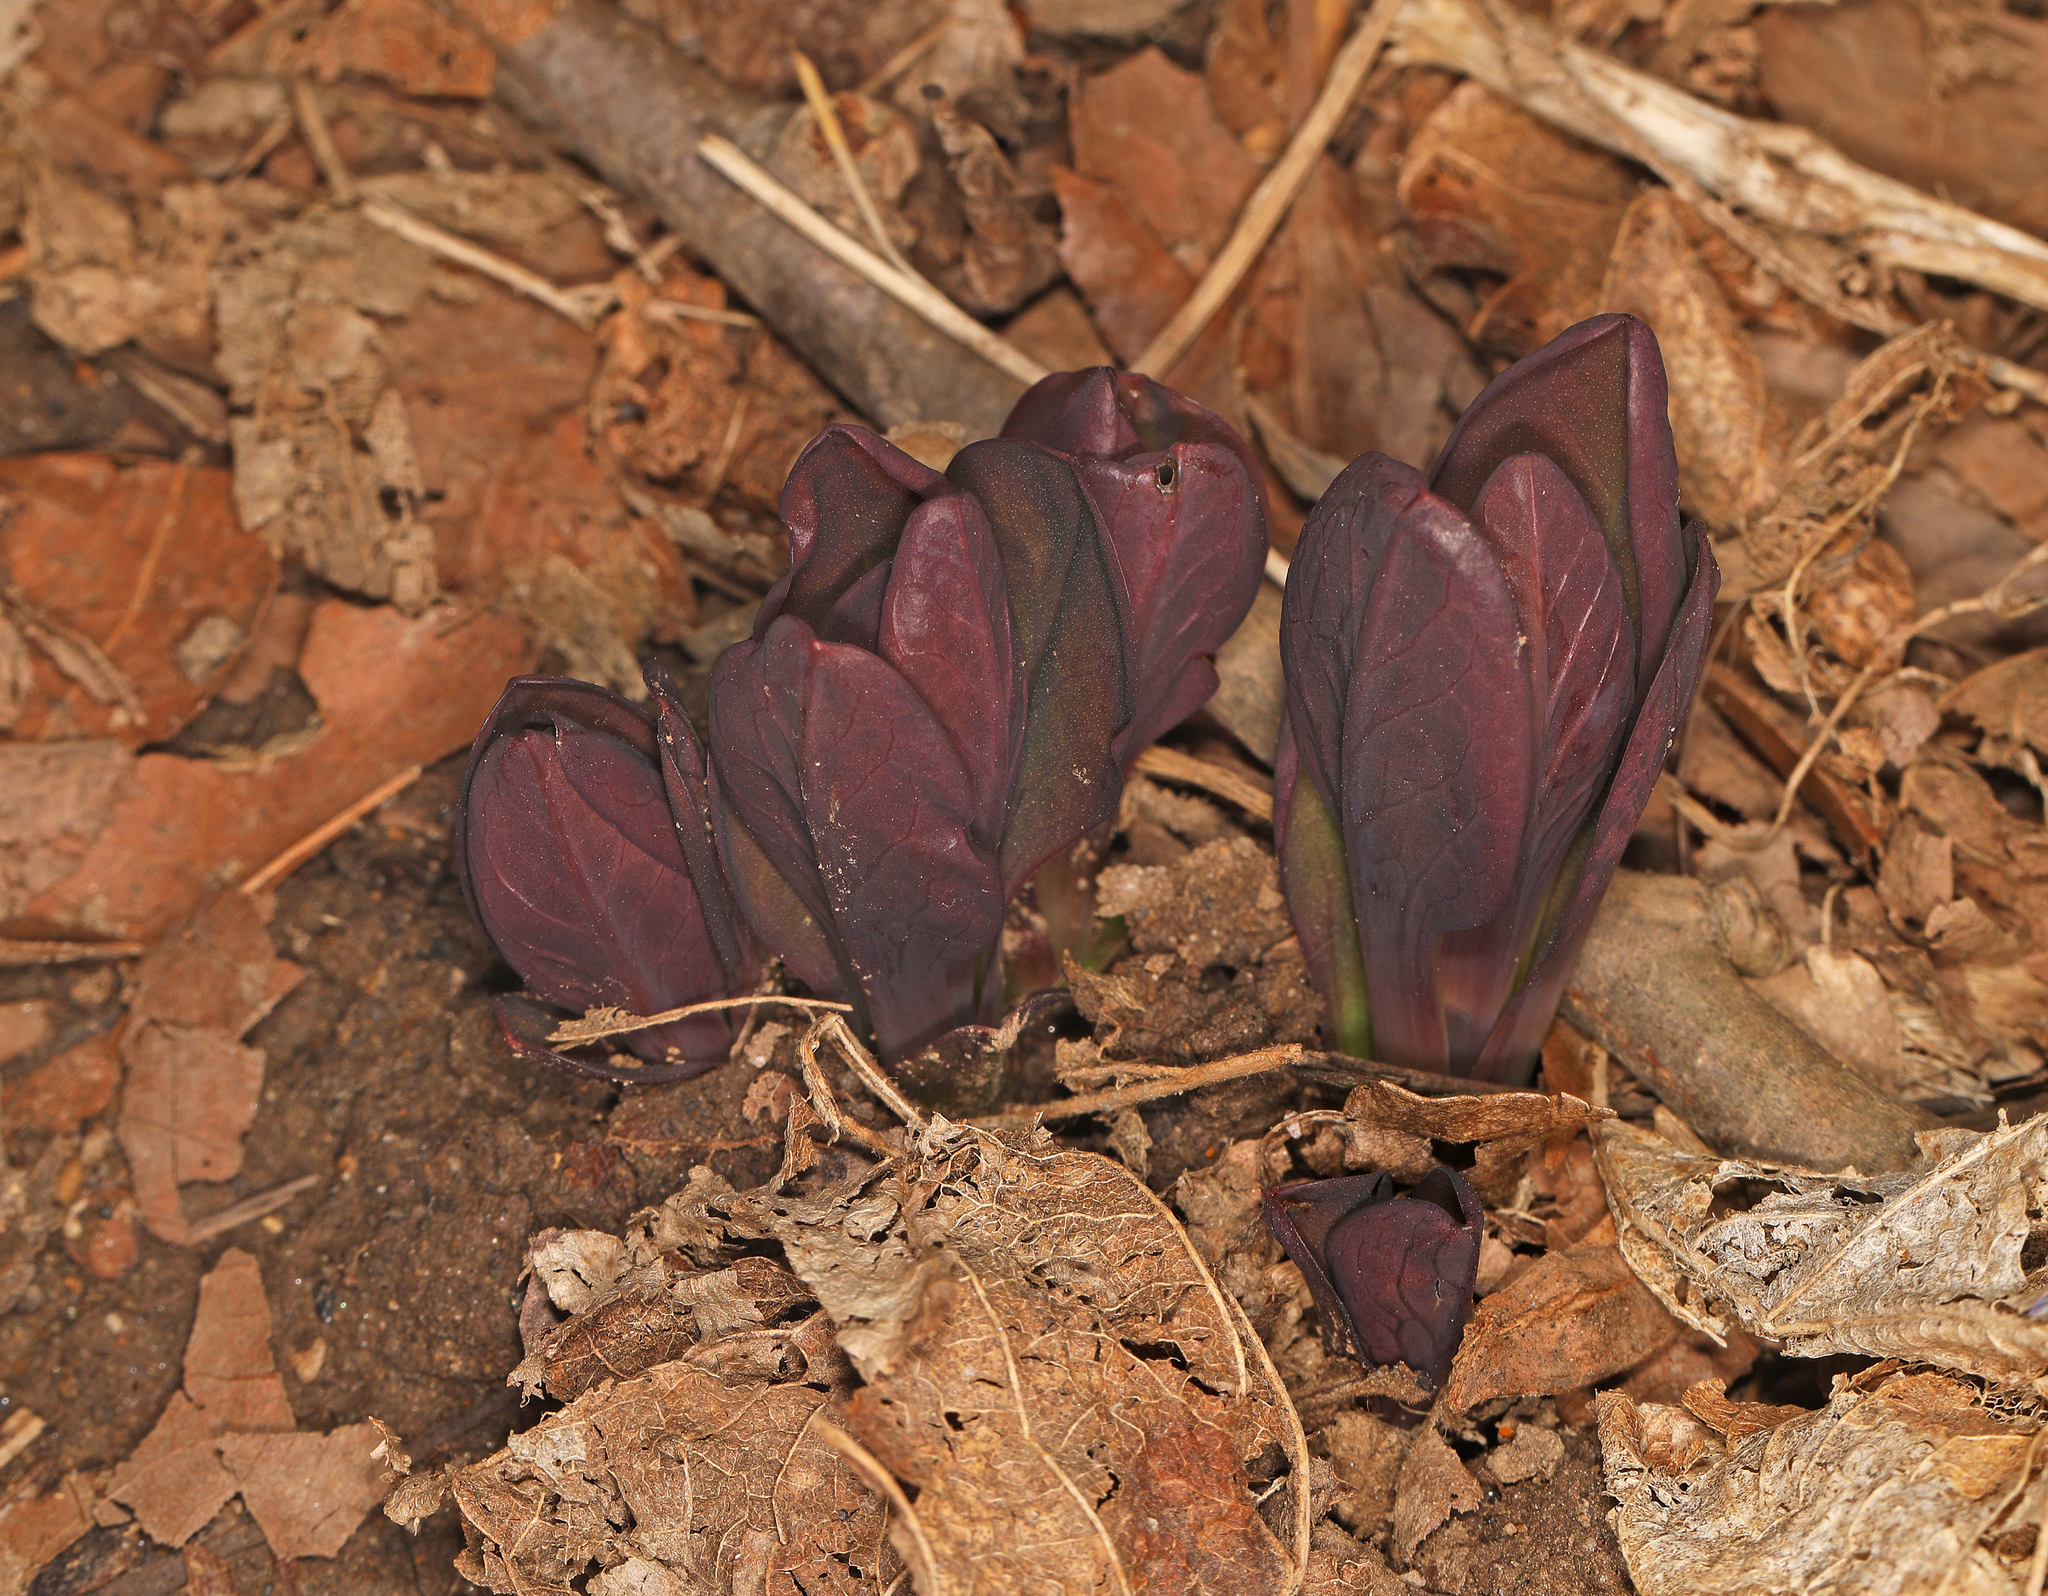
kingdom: Plantae
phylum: Tracheophyta
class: Magnoliopsida
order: Boraginales
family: Boraginaceae
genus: Mertensia
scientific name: Mertensia virginica
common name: Virginia bluebells
